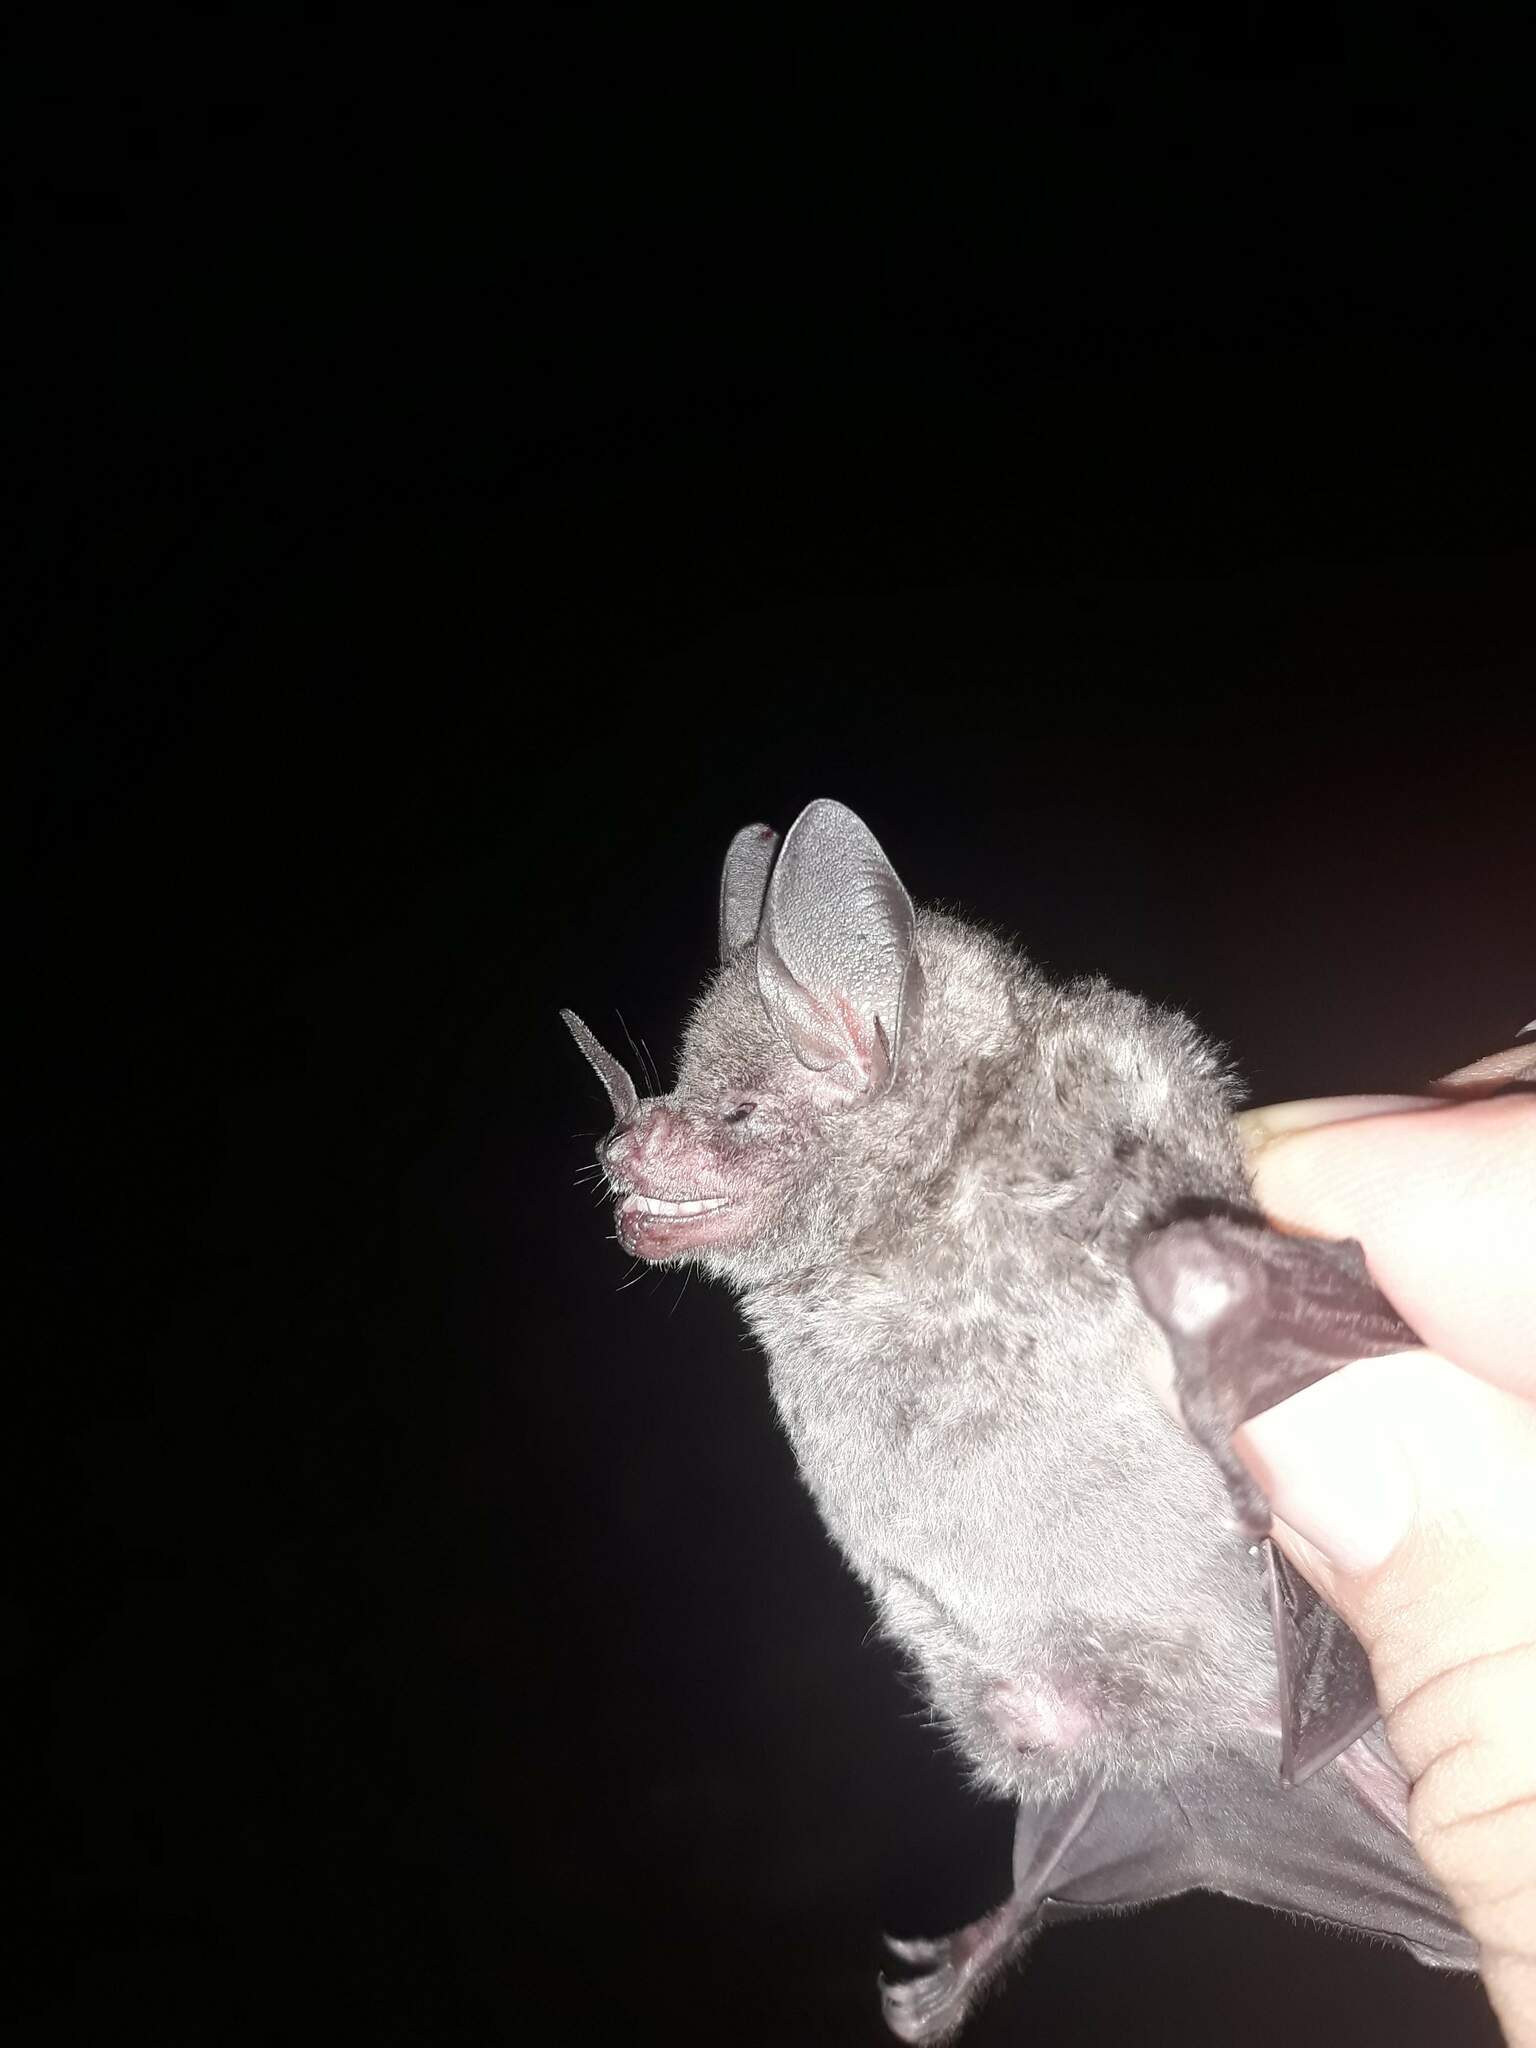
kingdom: Animalia
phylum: Chordata
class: Mammalia
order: Chiroptera
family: Phyllostomidae
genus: Carollia
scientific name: Carollia sowelli
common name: Sowell’s short-tailed bat
